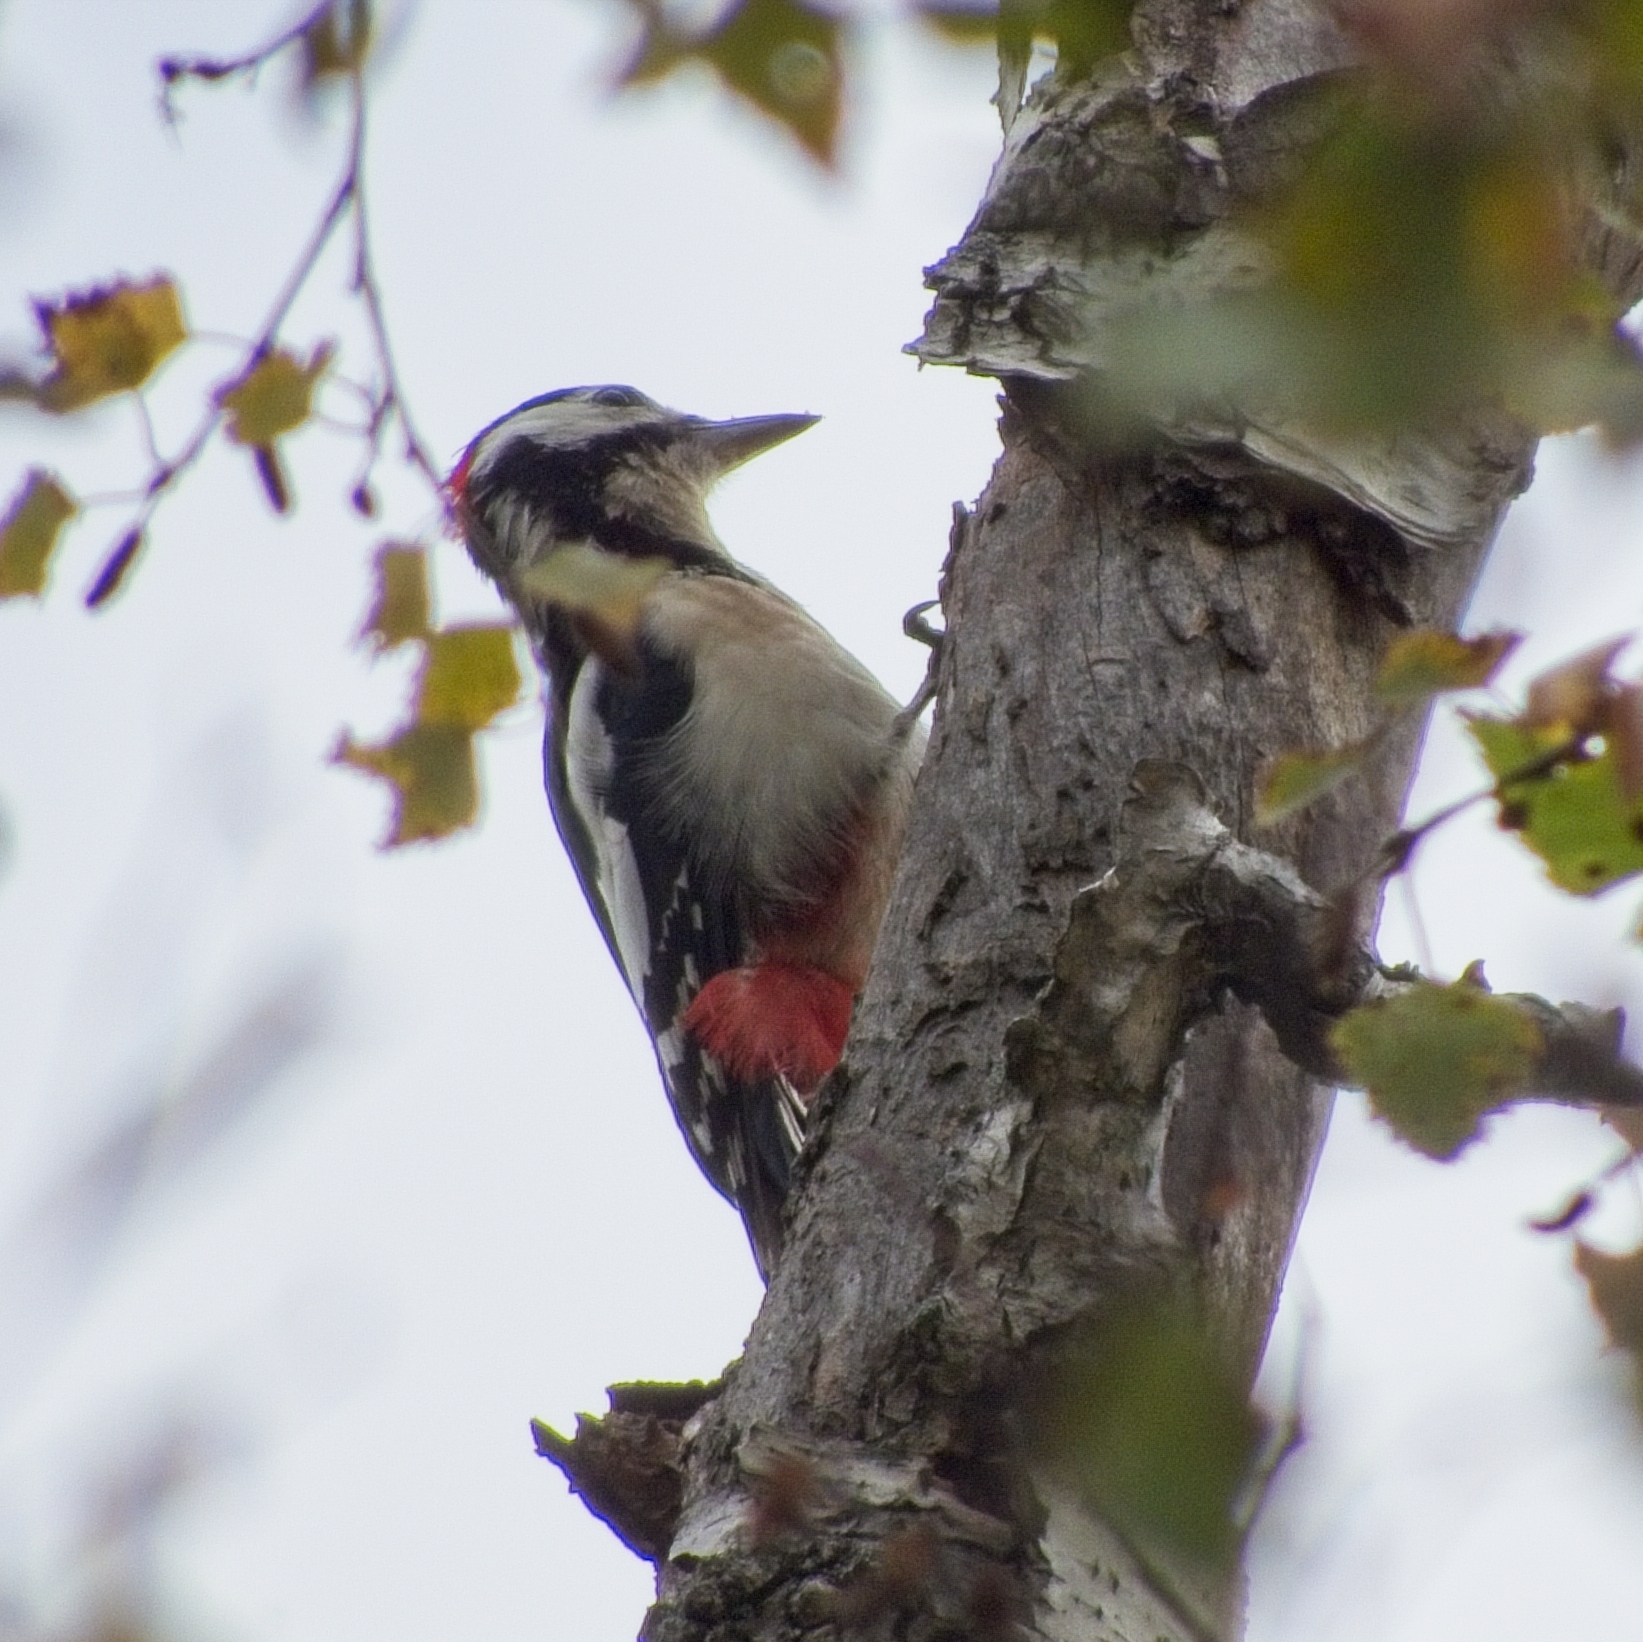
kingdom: Animalia
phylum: Chordata
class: Aves
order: Piciformes
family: Picidae
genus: Dendrocopos
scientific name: Dendrocopos major
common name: Great spotted woodpecker
